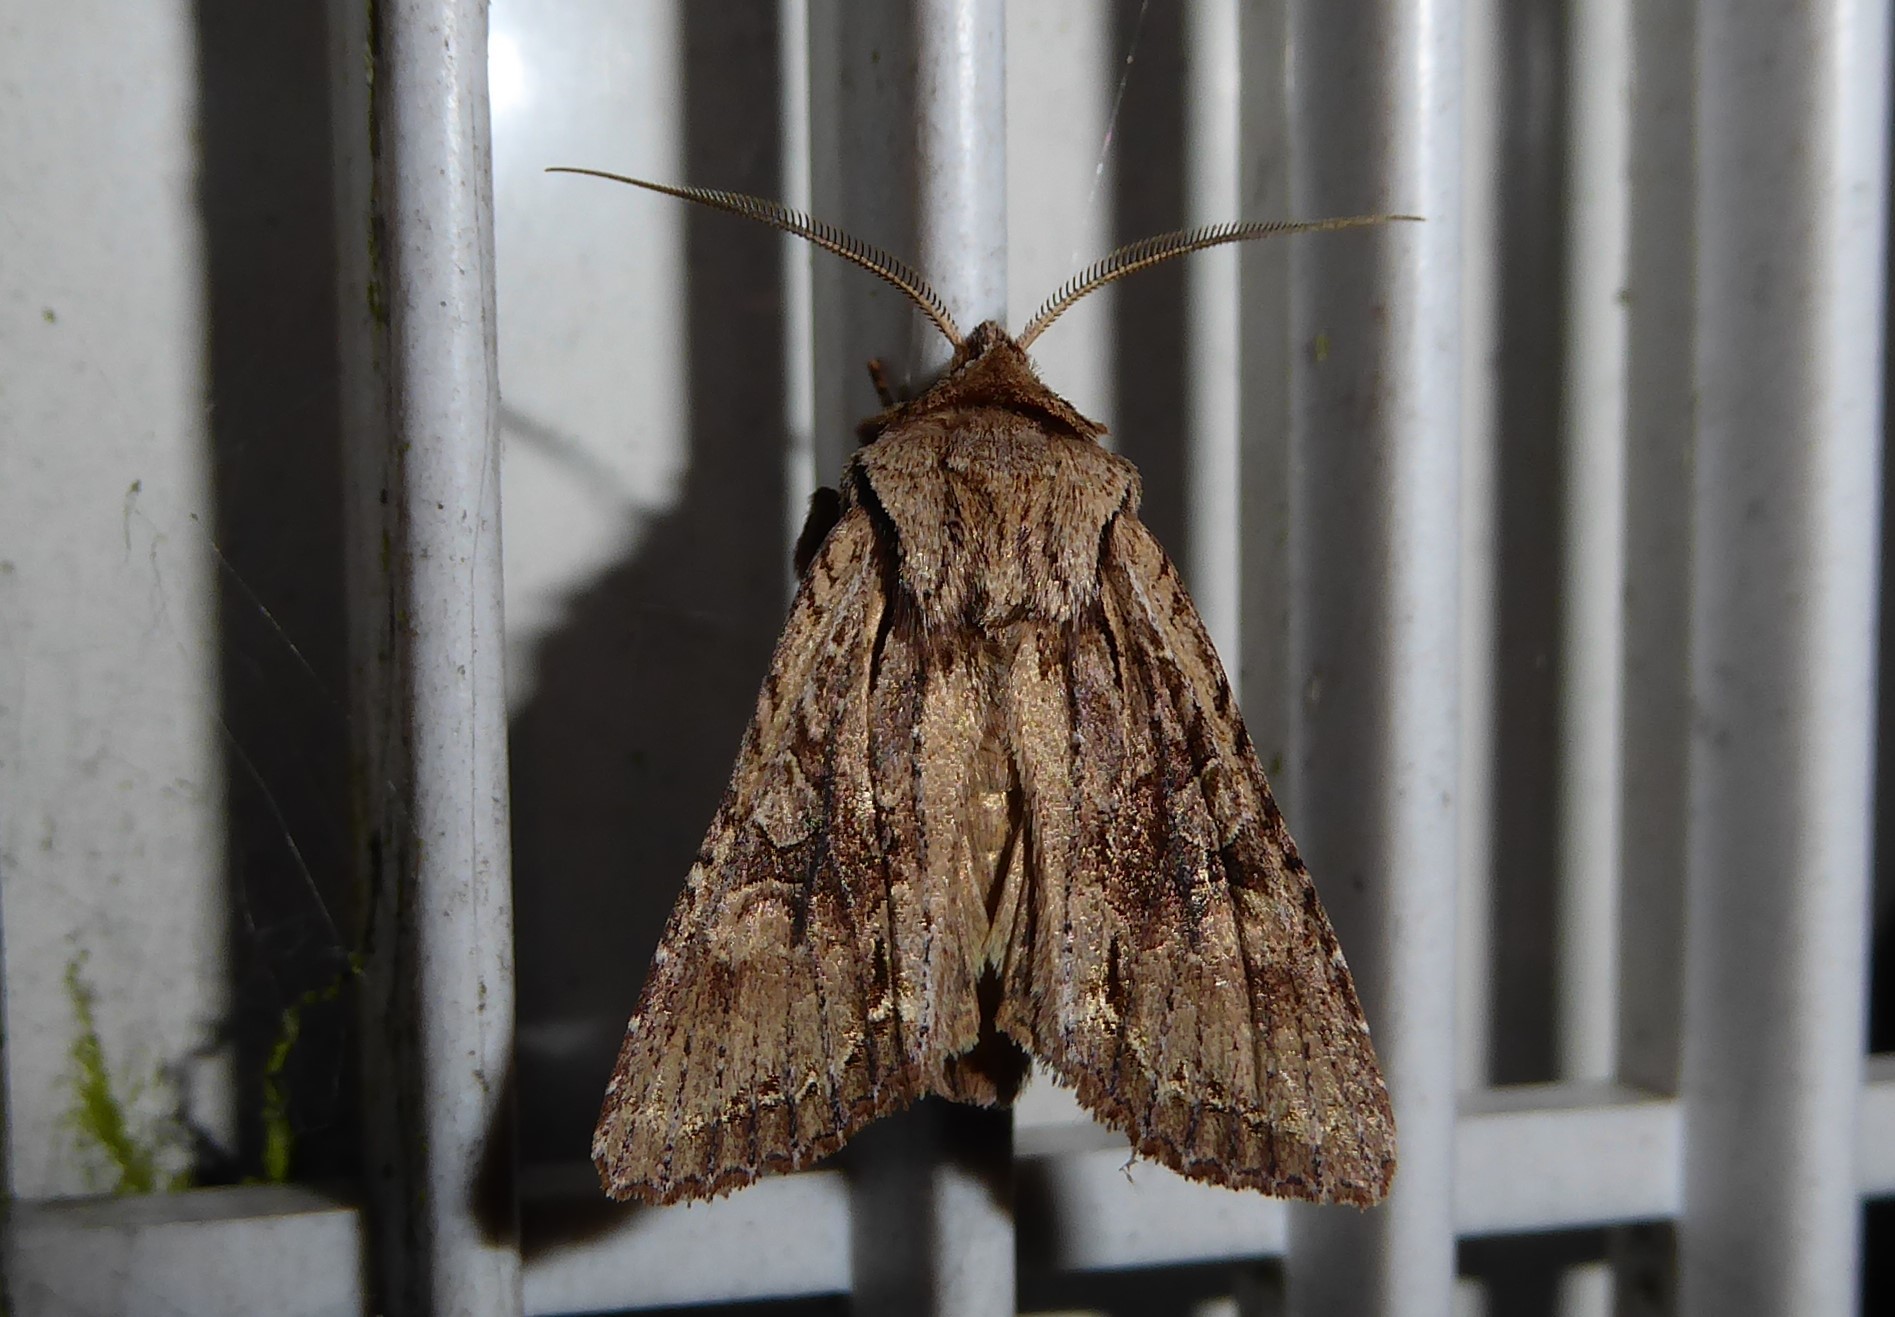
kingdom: Animalia
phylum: Arthropoda
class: Insecta
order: Lepidoptera
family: Noctuidae
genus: Ichneutica
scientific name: Ichneutica mutans
